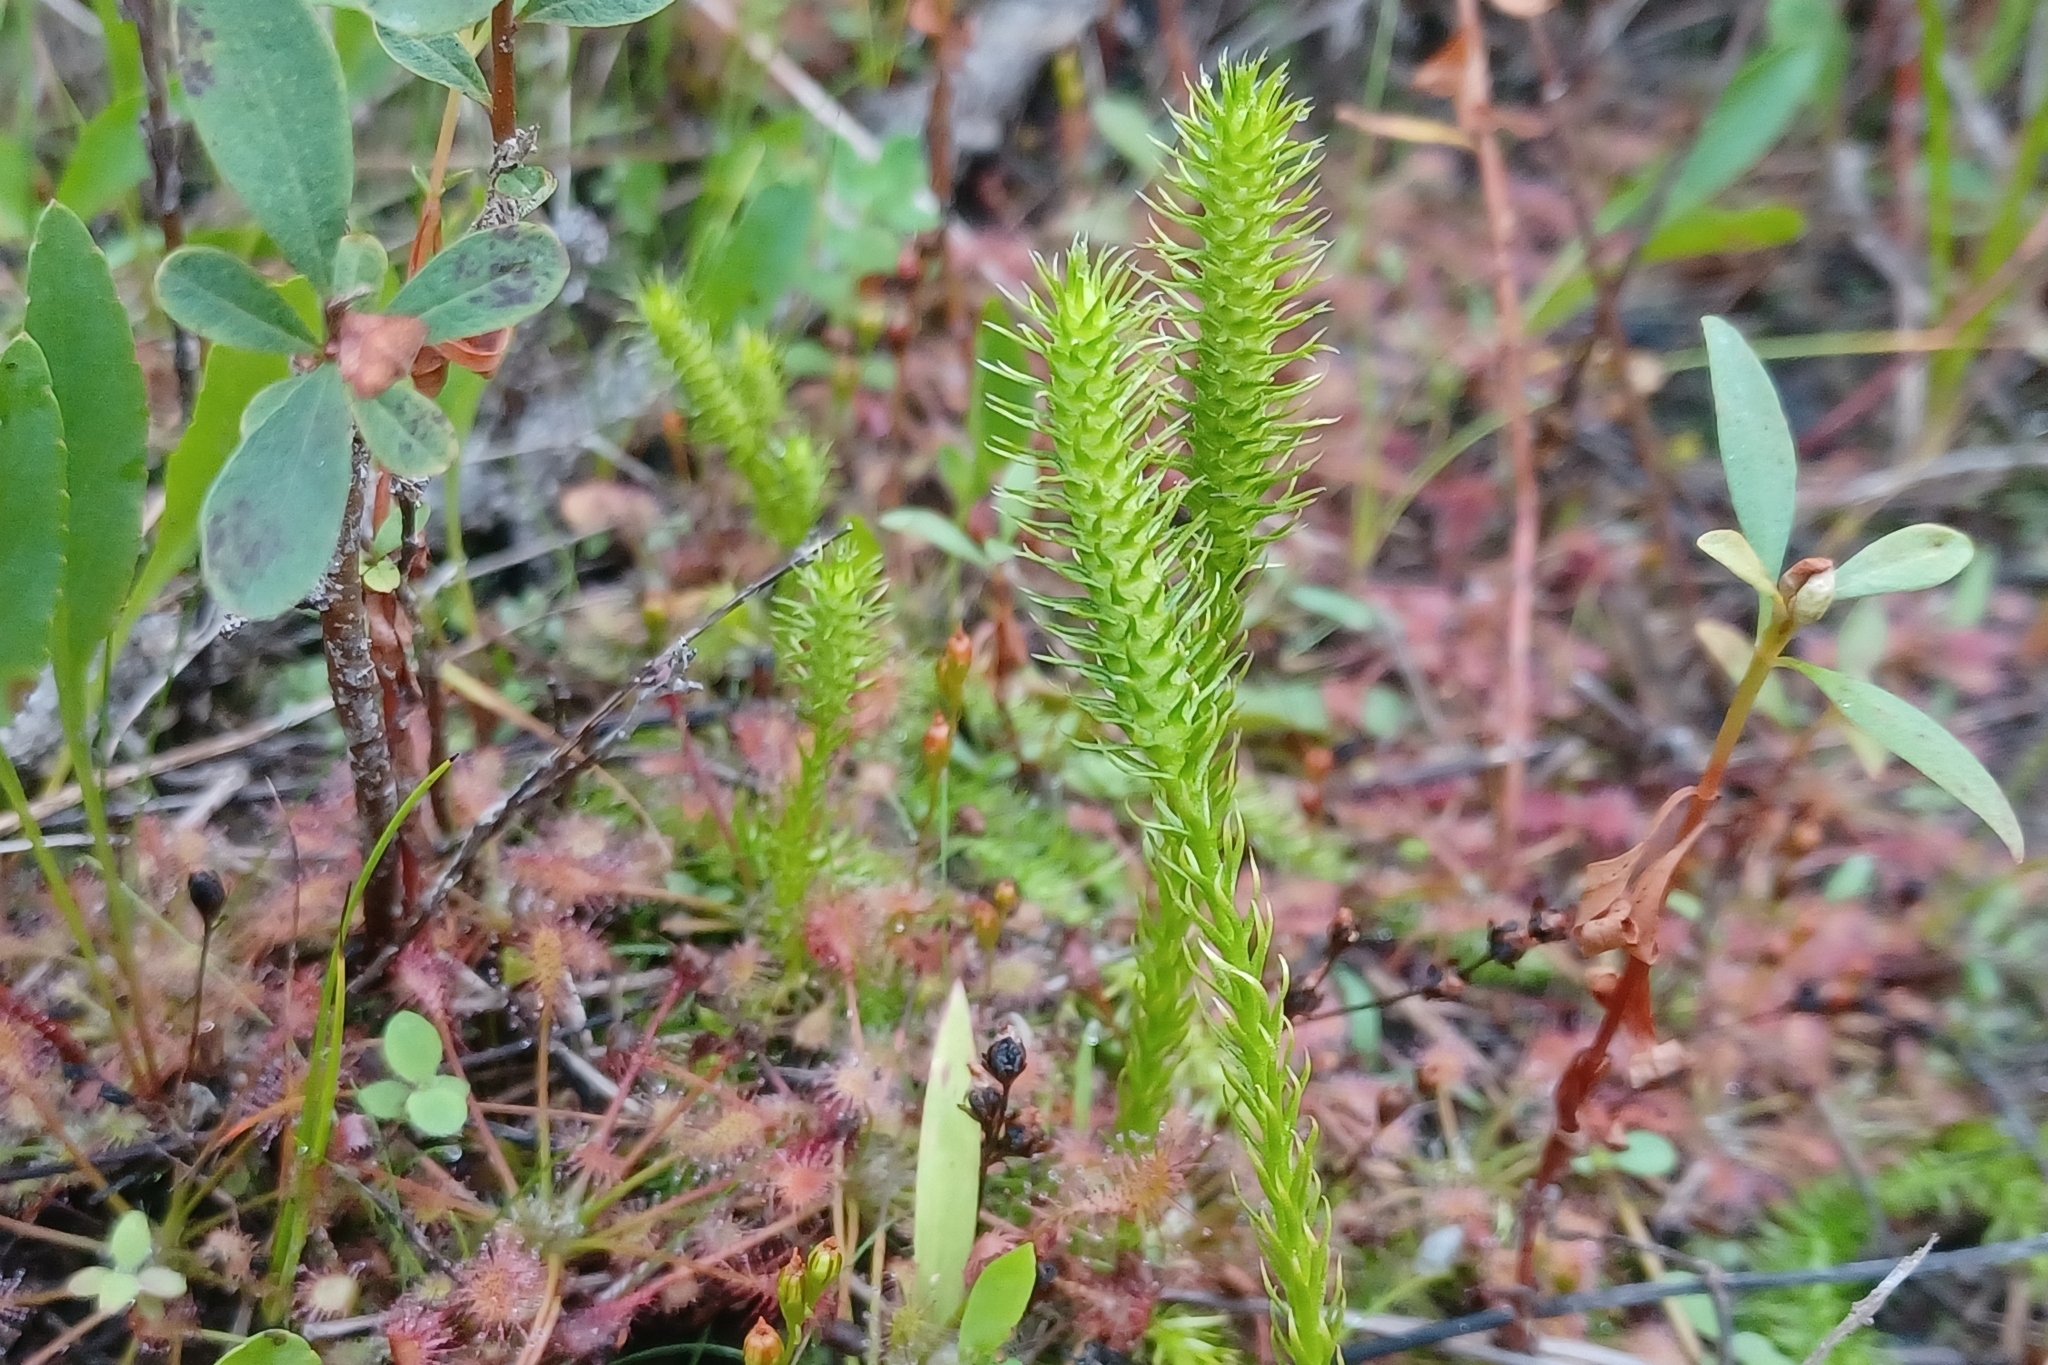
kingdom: Plantae
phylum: Tracheophyta
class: Lycopodiopsida
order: Lycopodiales
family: Lycopodiaceae
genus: Lycopodiella
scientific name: Lycopodiella inundata
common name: Marsh clubmoss
